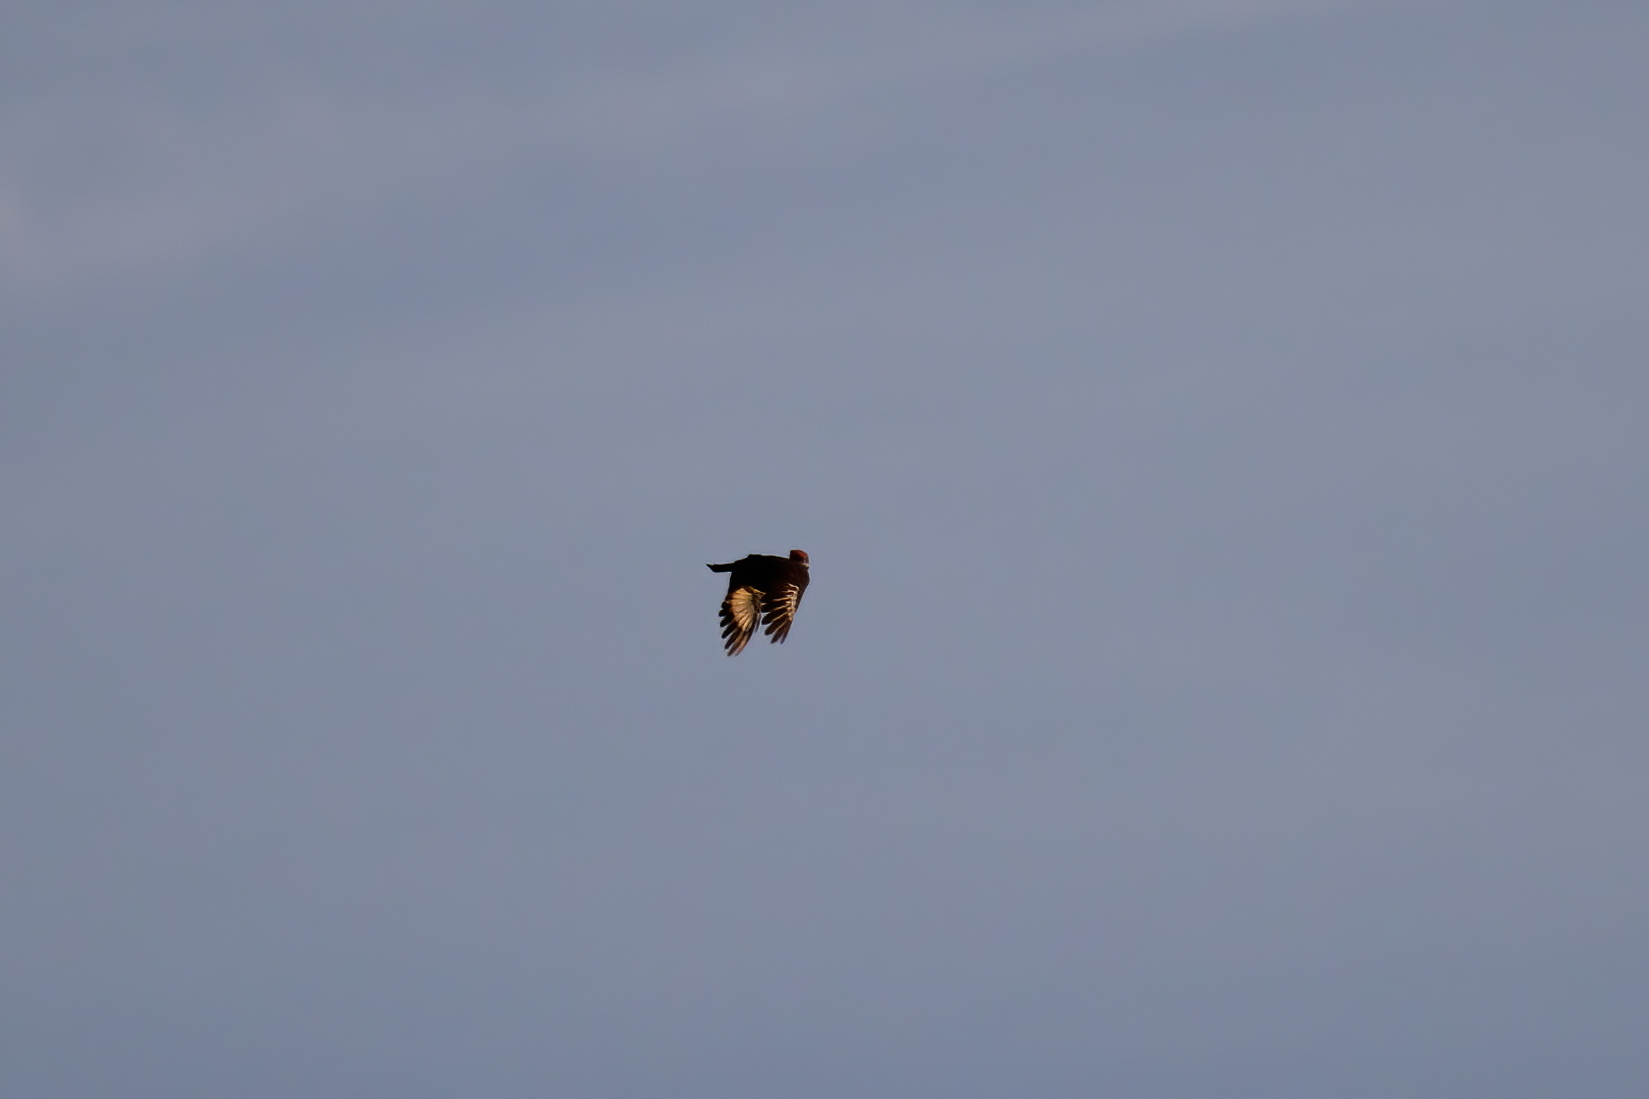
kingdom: Animalia
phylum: Chordata
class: Aves
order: Piciformes
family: Picidae
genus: Dryocopus
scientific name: Dryocopus pileatus
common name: Pileated woodpecker
